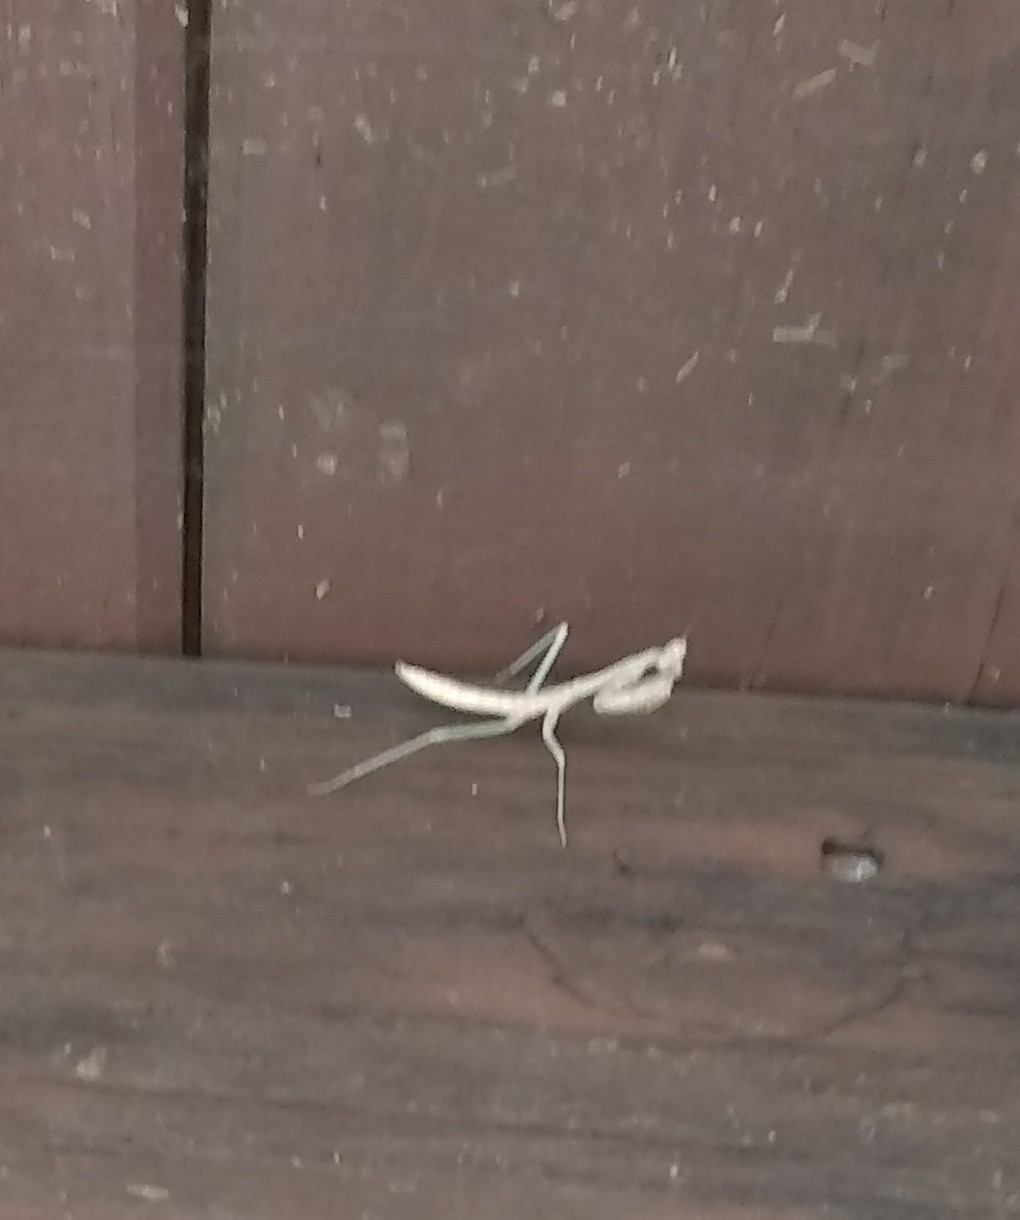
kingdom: Animalia
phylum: Arthropoda
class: Insecta
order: Mantodea
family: Mantidae
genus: Stagmomantis
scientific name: Stagmomantis carolina
